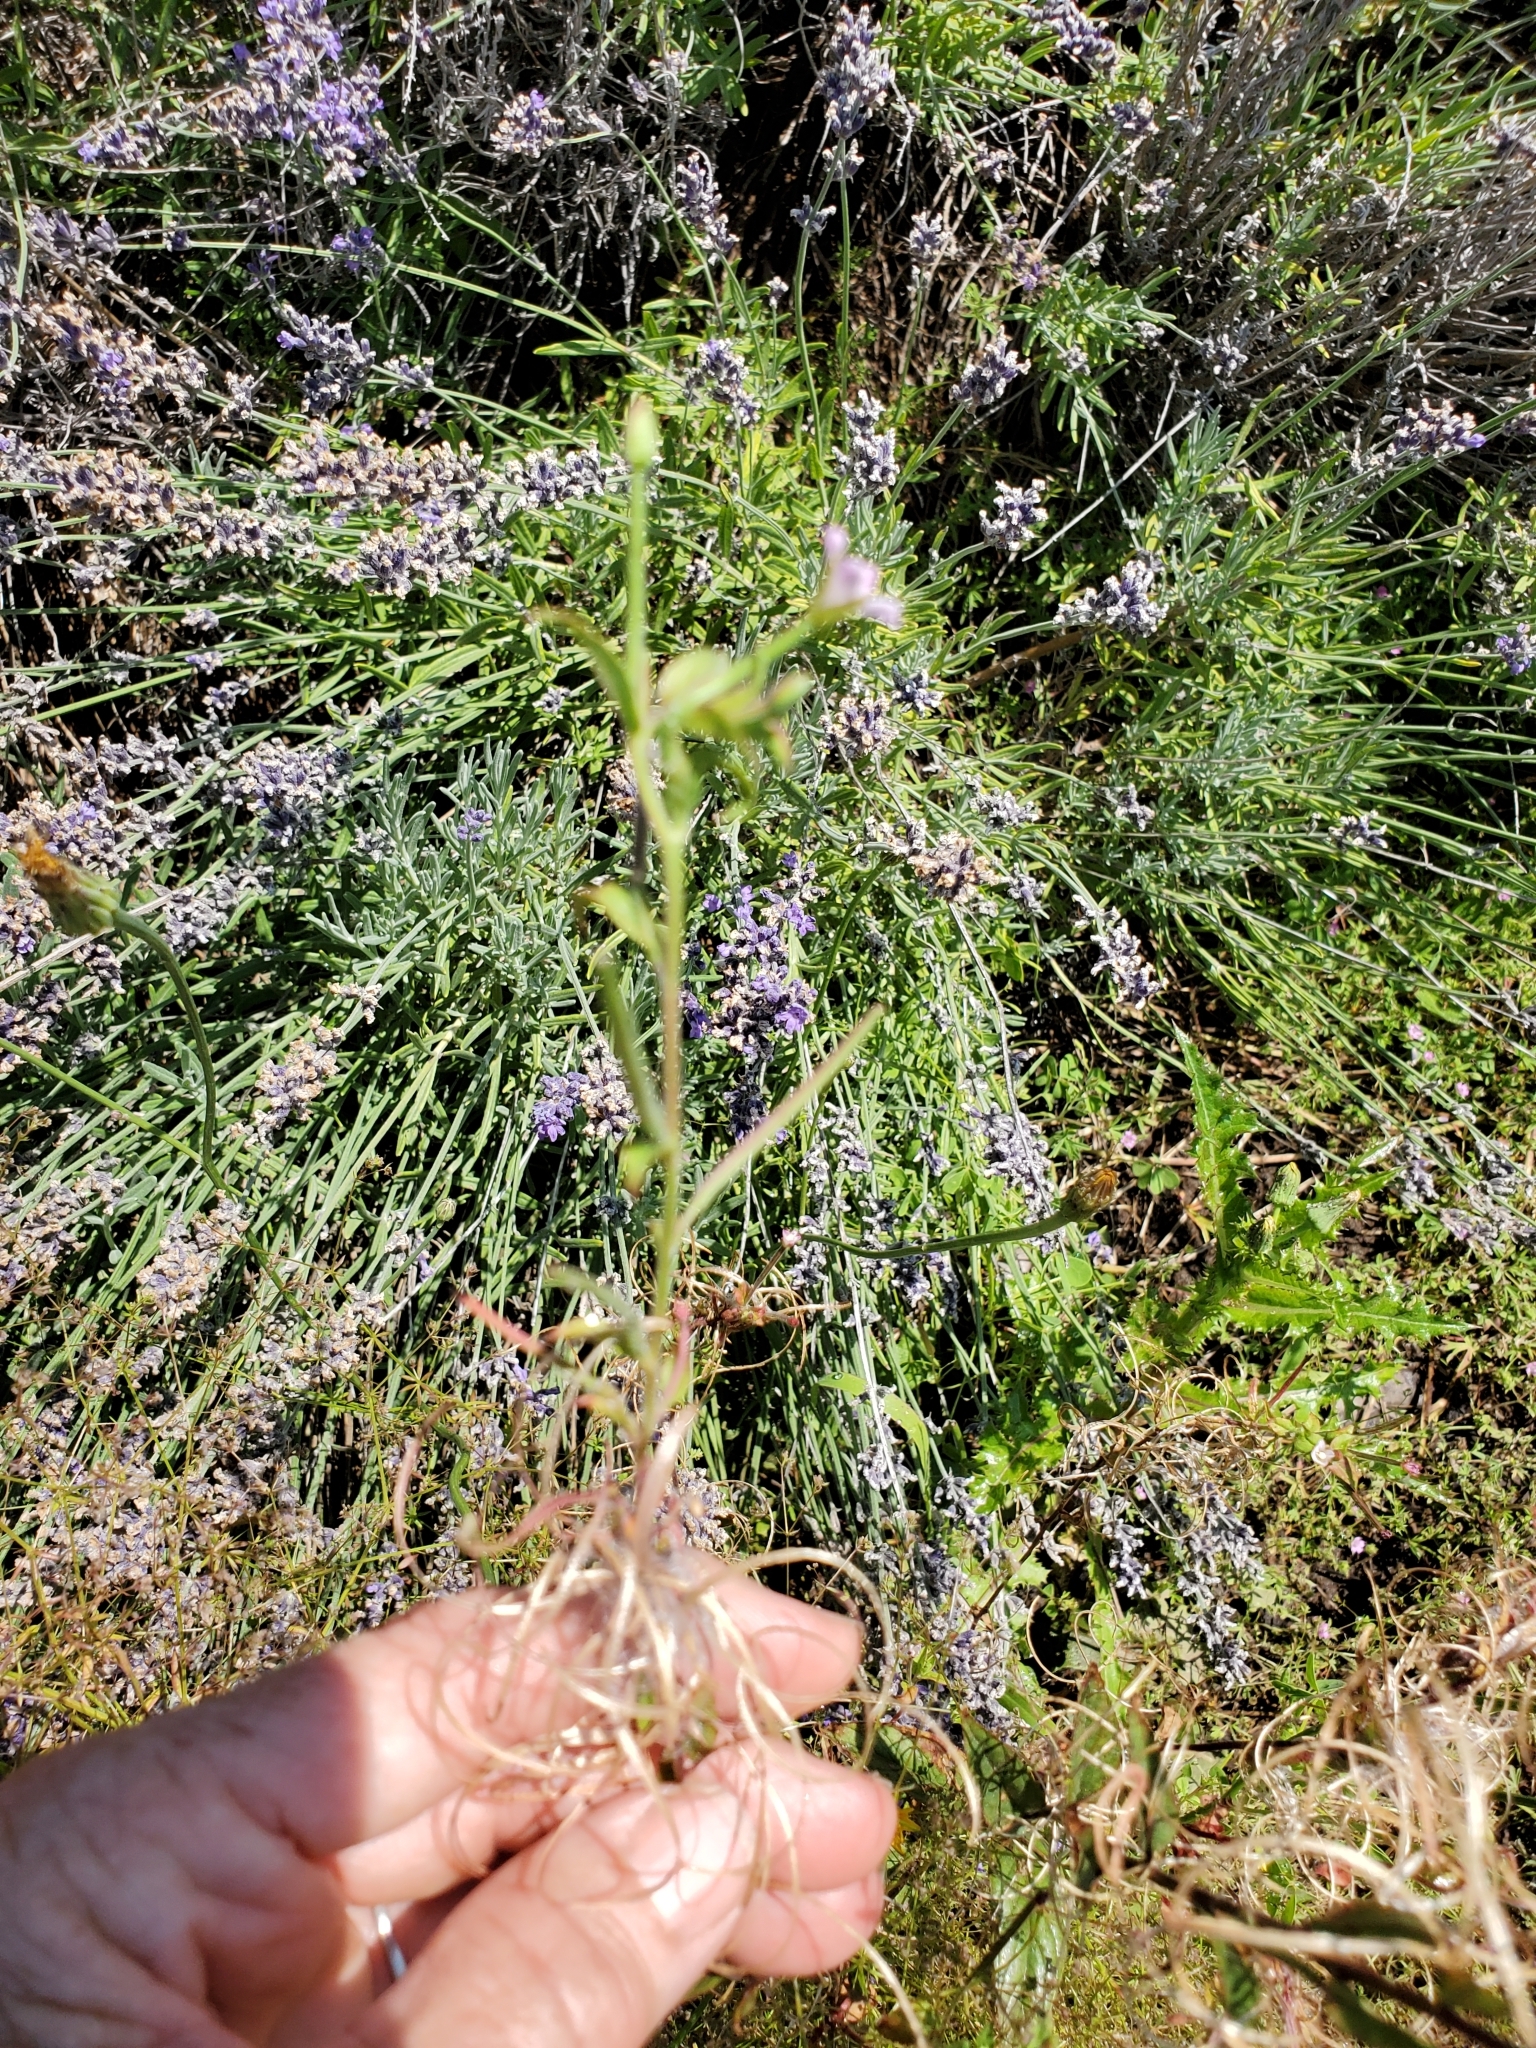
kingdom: Plantae
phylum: Tracheophyta
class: Magnoliopsida
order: Myrtales
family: Onagraceae
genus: Epilobium
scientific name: Epilobium ciliatum
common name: American willowherb
